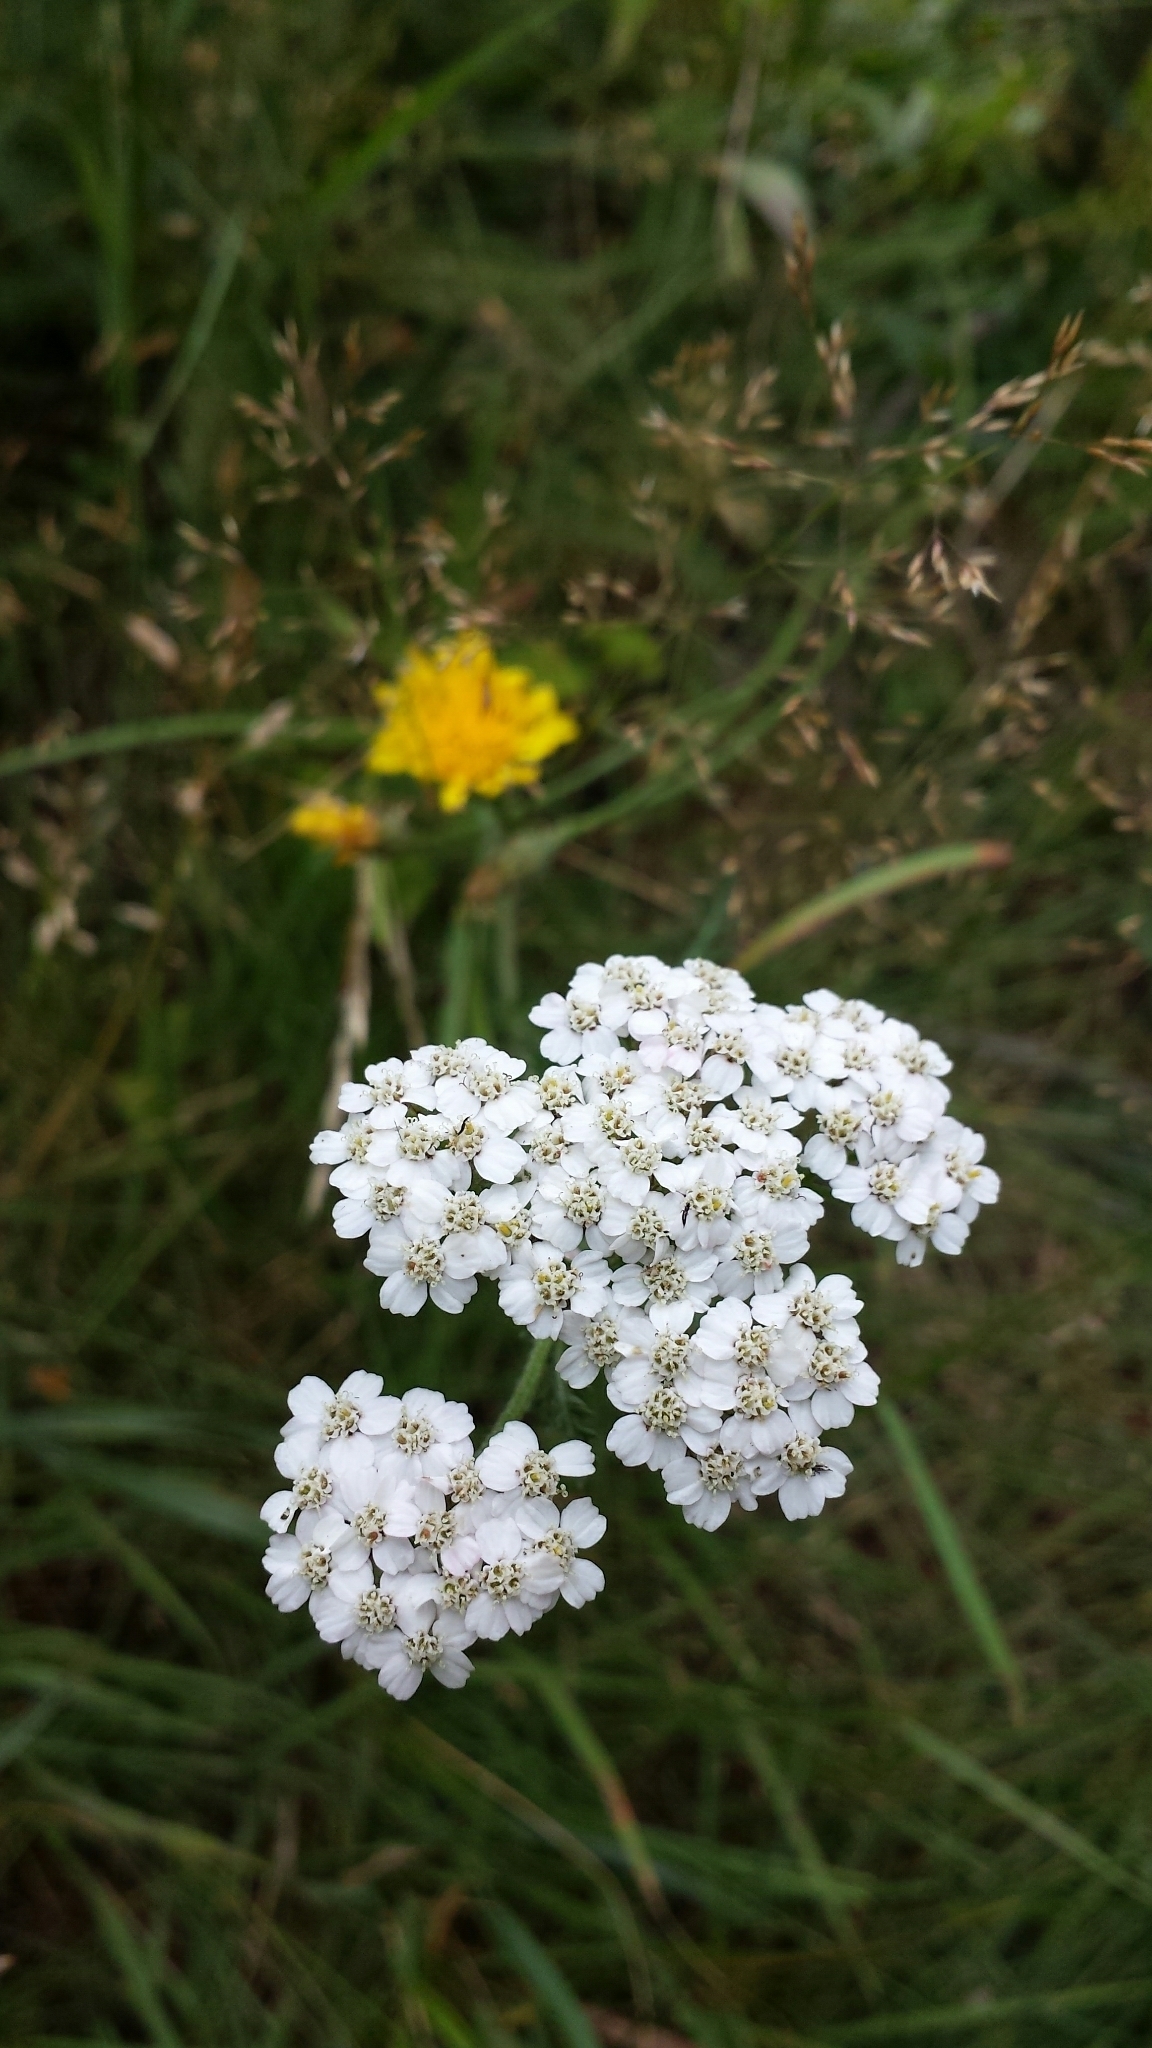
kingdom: Plantae
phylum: Tracheophyta
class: Magnoliopsida
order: Asterales
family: Asteraceae
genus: Achillea
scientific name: Achillea millefolium
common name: Yarrow
